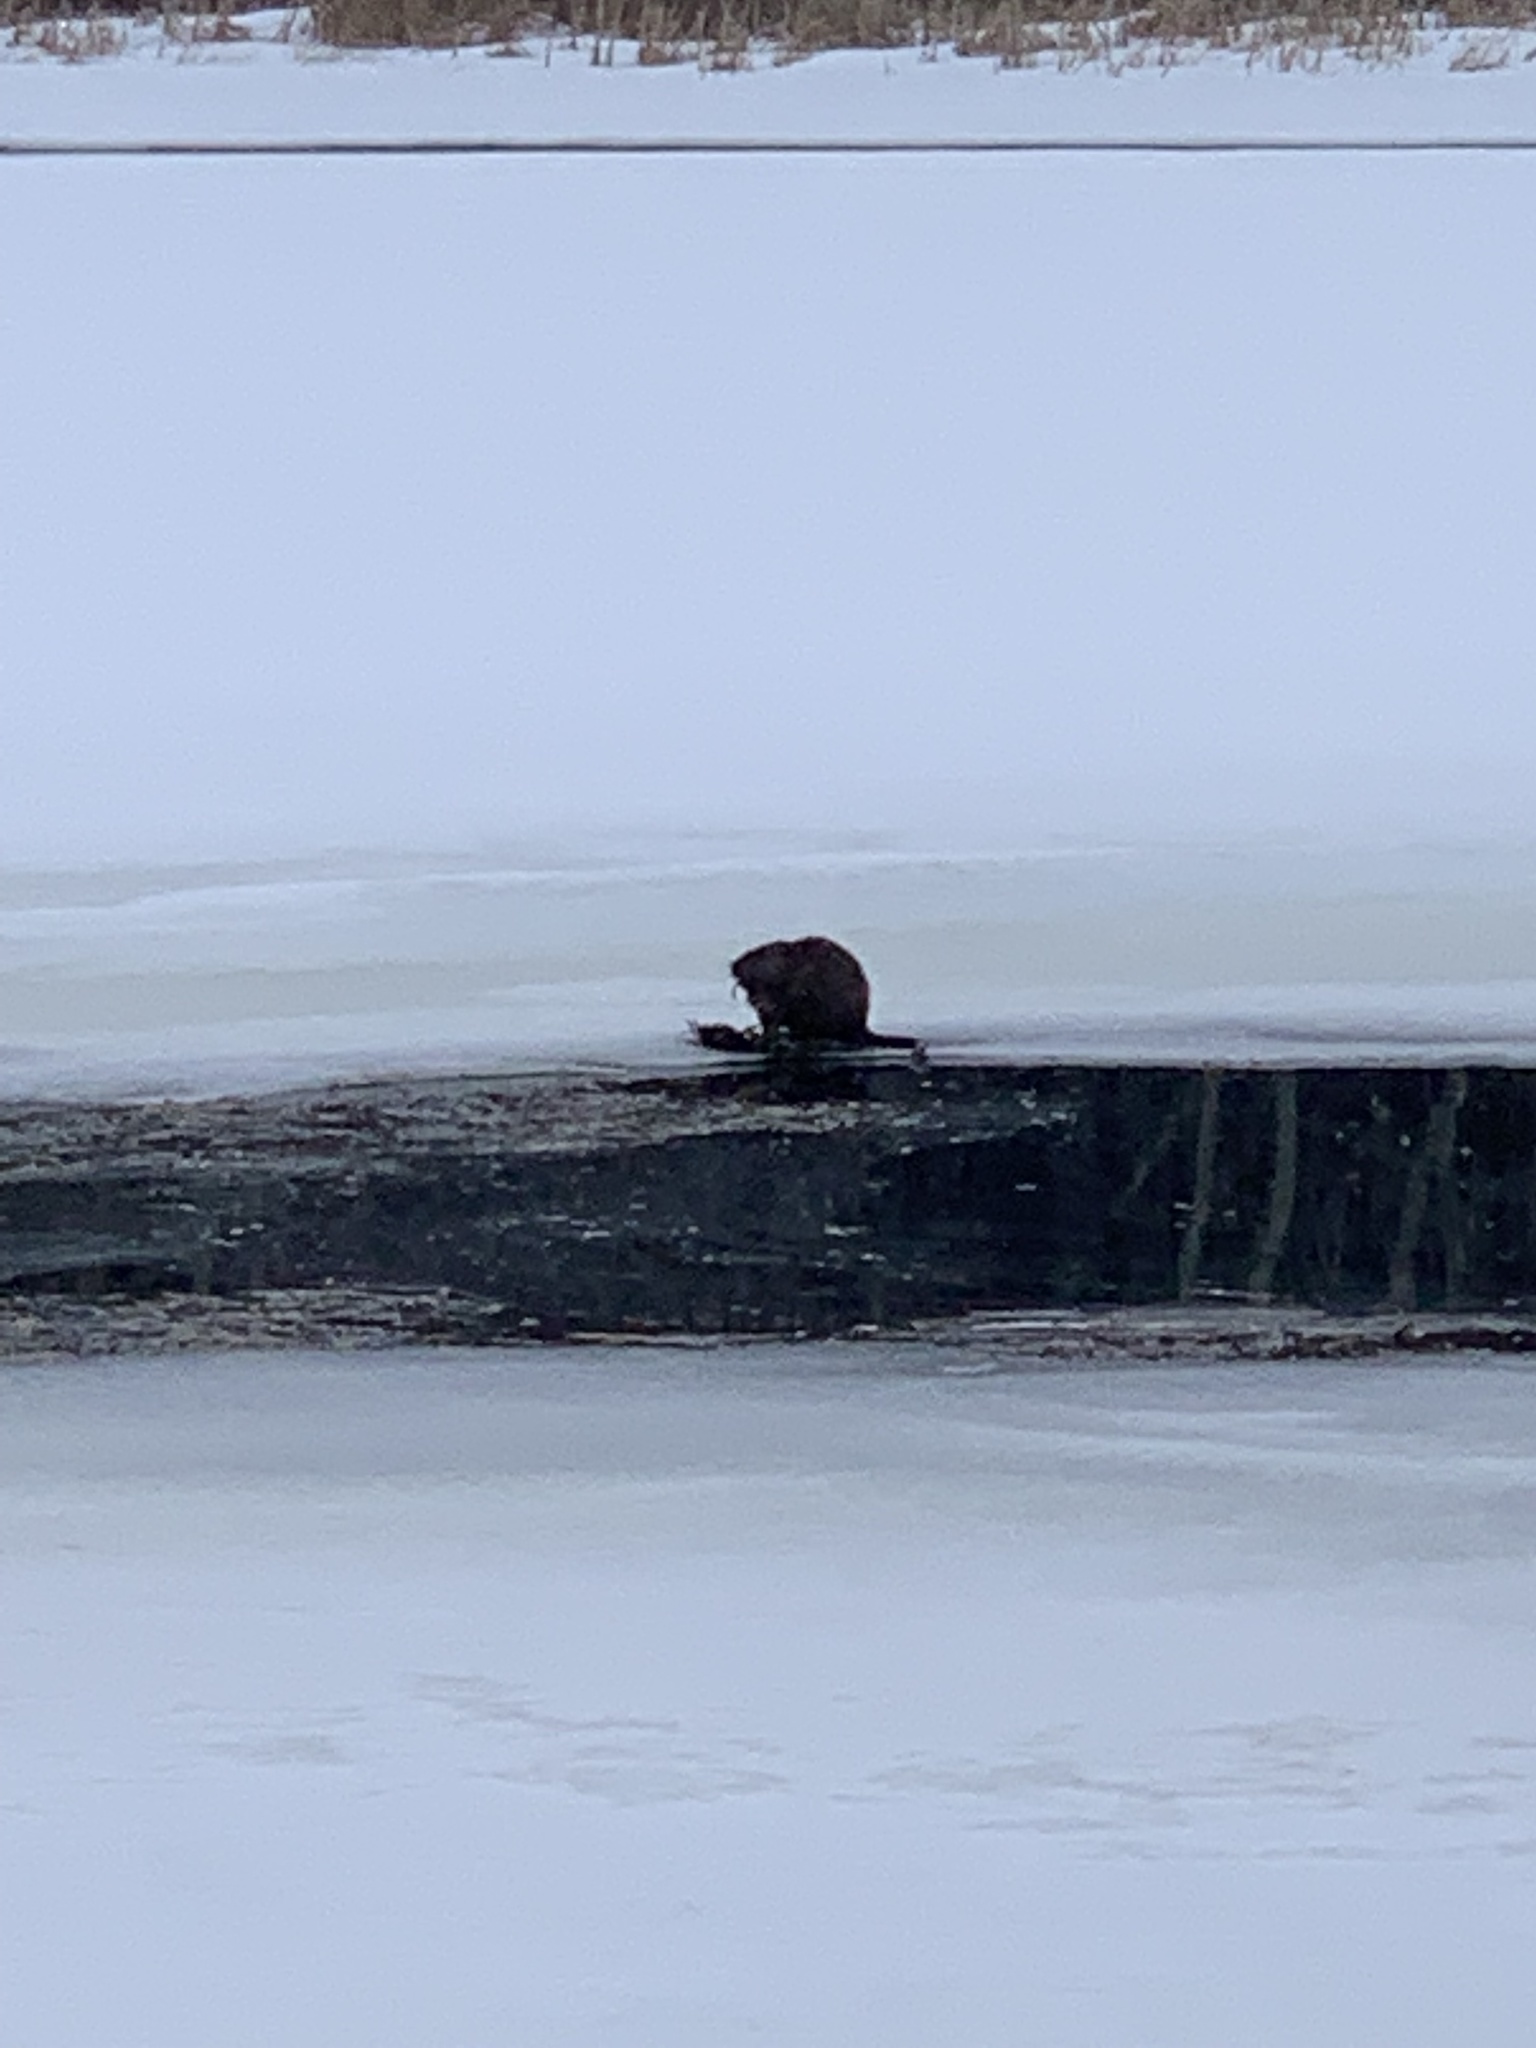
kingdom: Animalia
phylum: Chordata
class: Mammalia
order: Rodentia
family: Cricetidae
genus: Ondatra
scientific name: Ondatra zibethicus
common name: Muskrat
